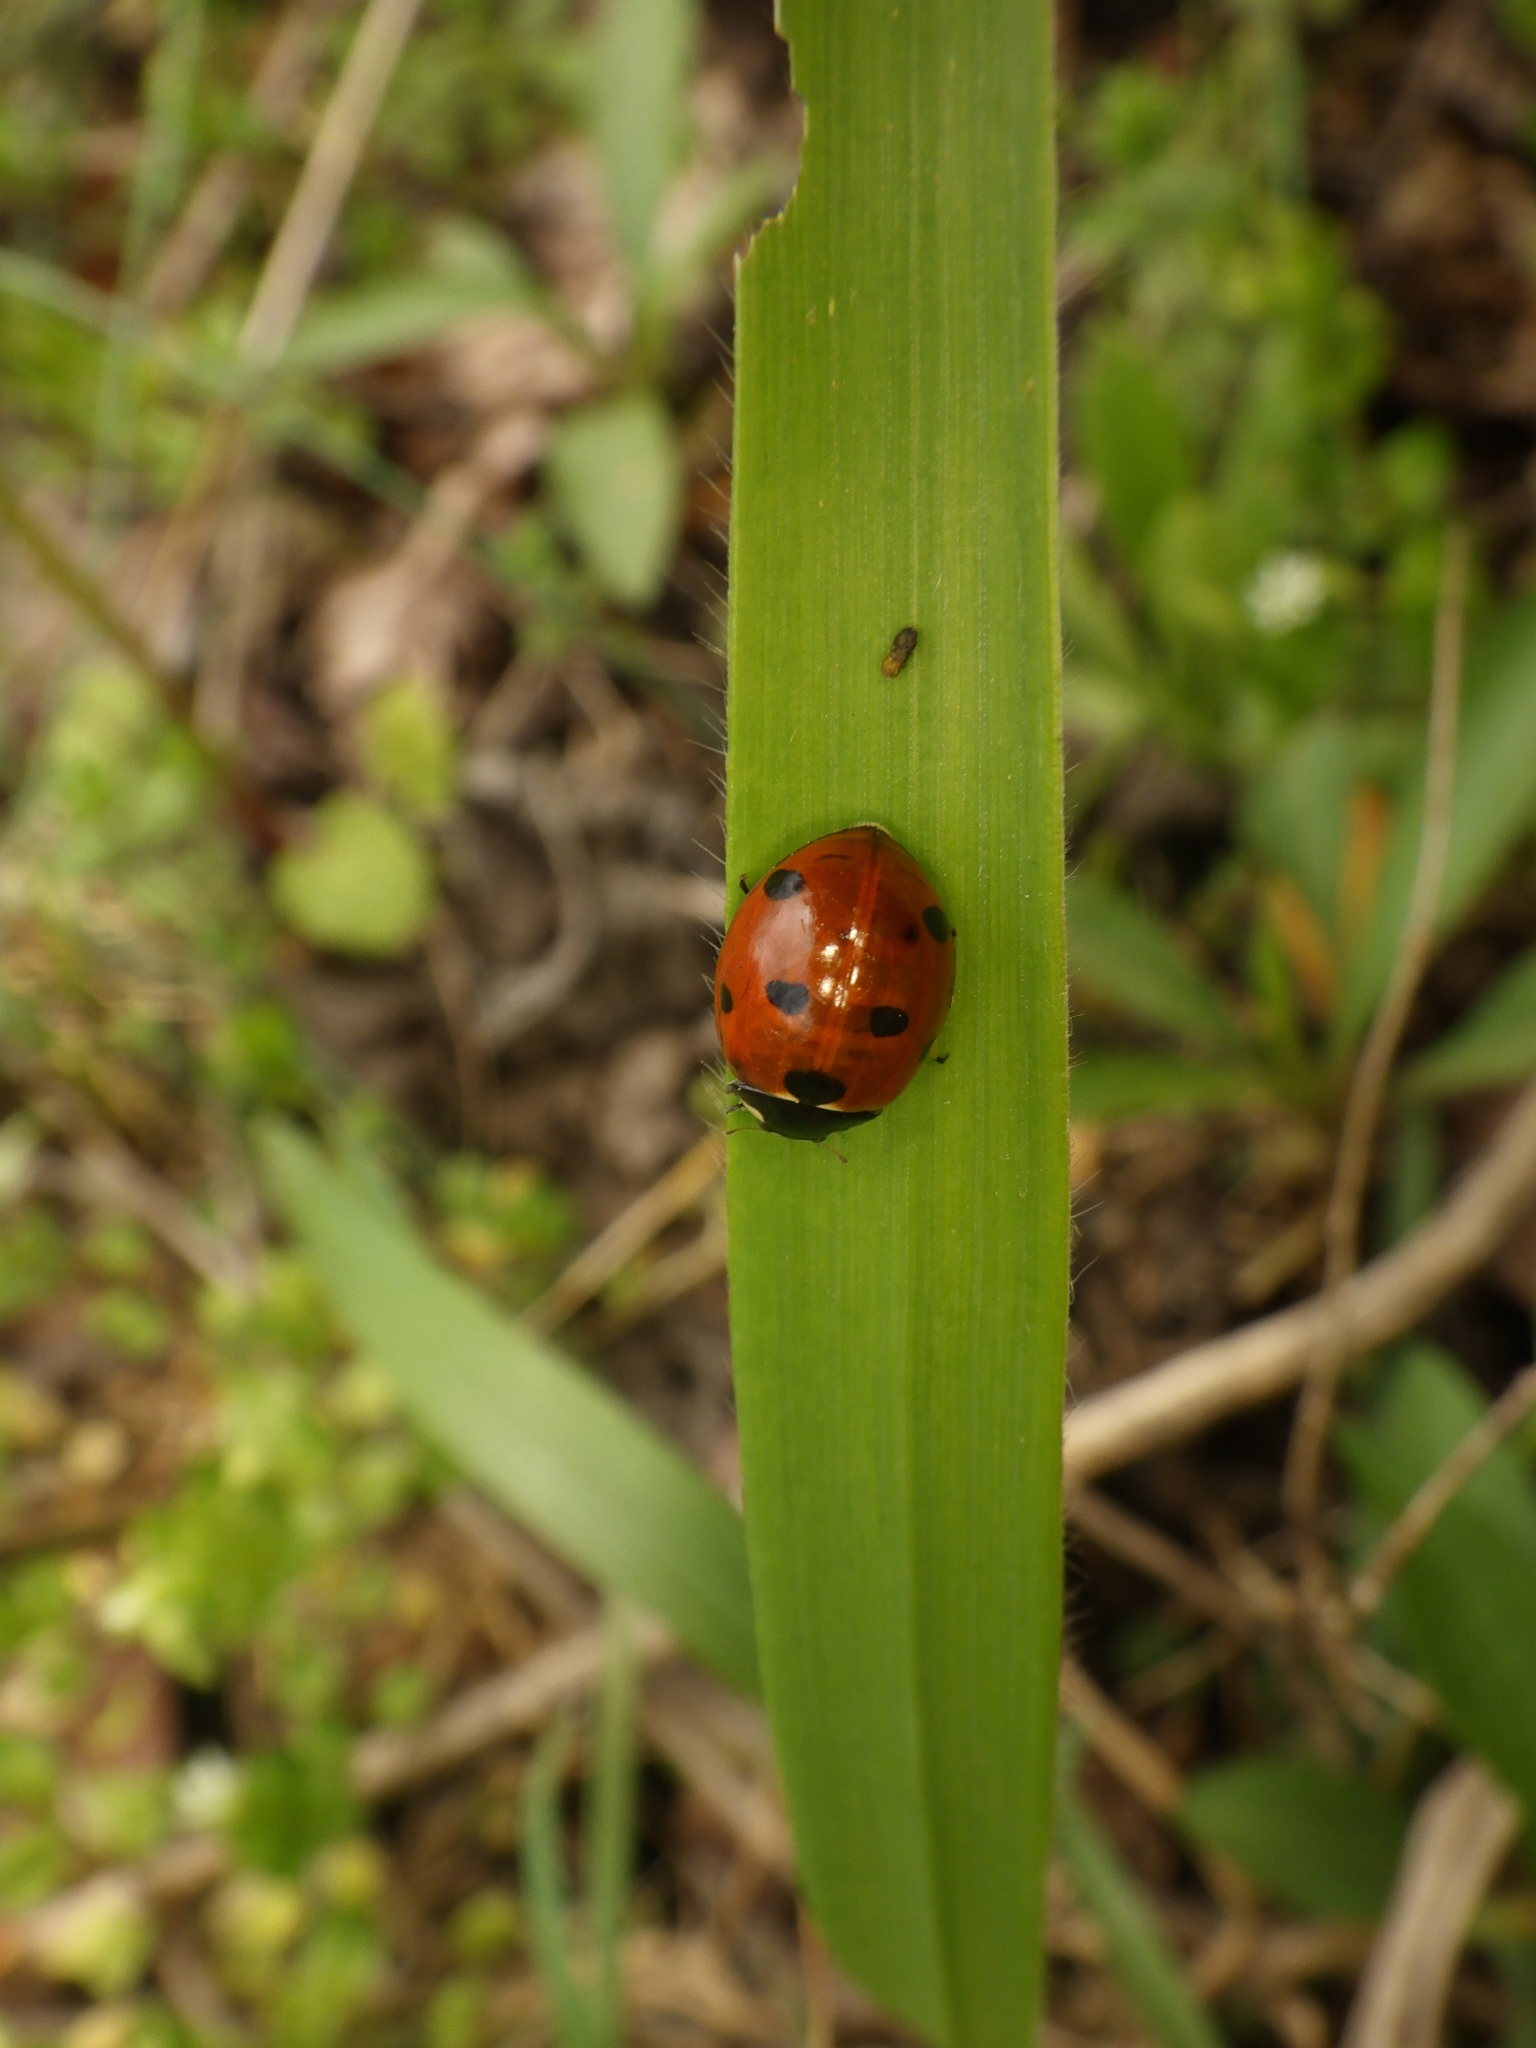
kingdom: Animalia
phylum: Arthropoda
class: Insecta
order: Coleoptera
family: Coccinellidae
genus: Coccinella
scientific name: Coccinella septempunctata
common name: Sevenspotted lady beetle
